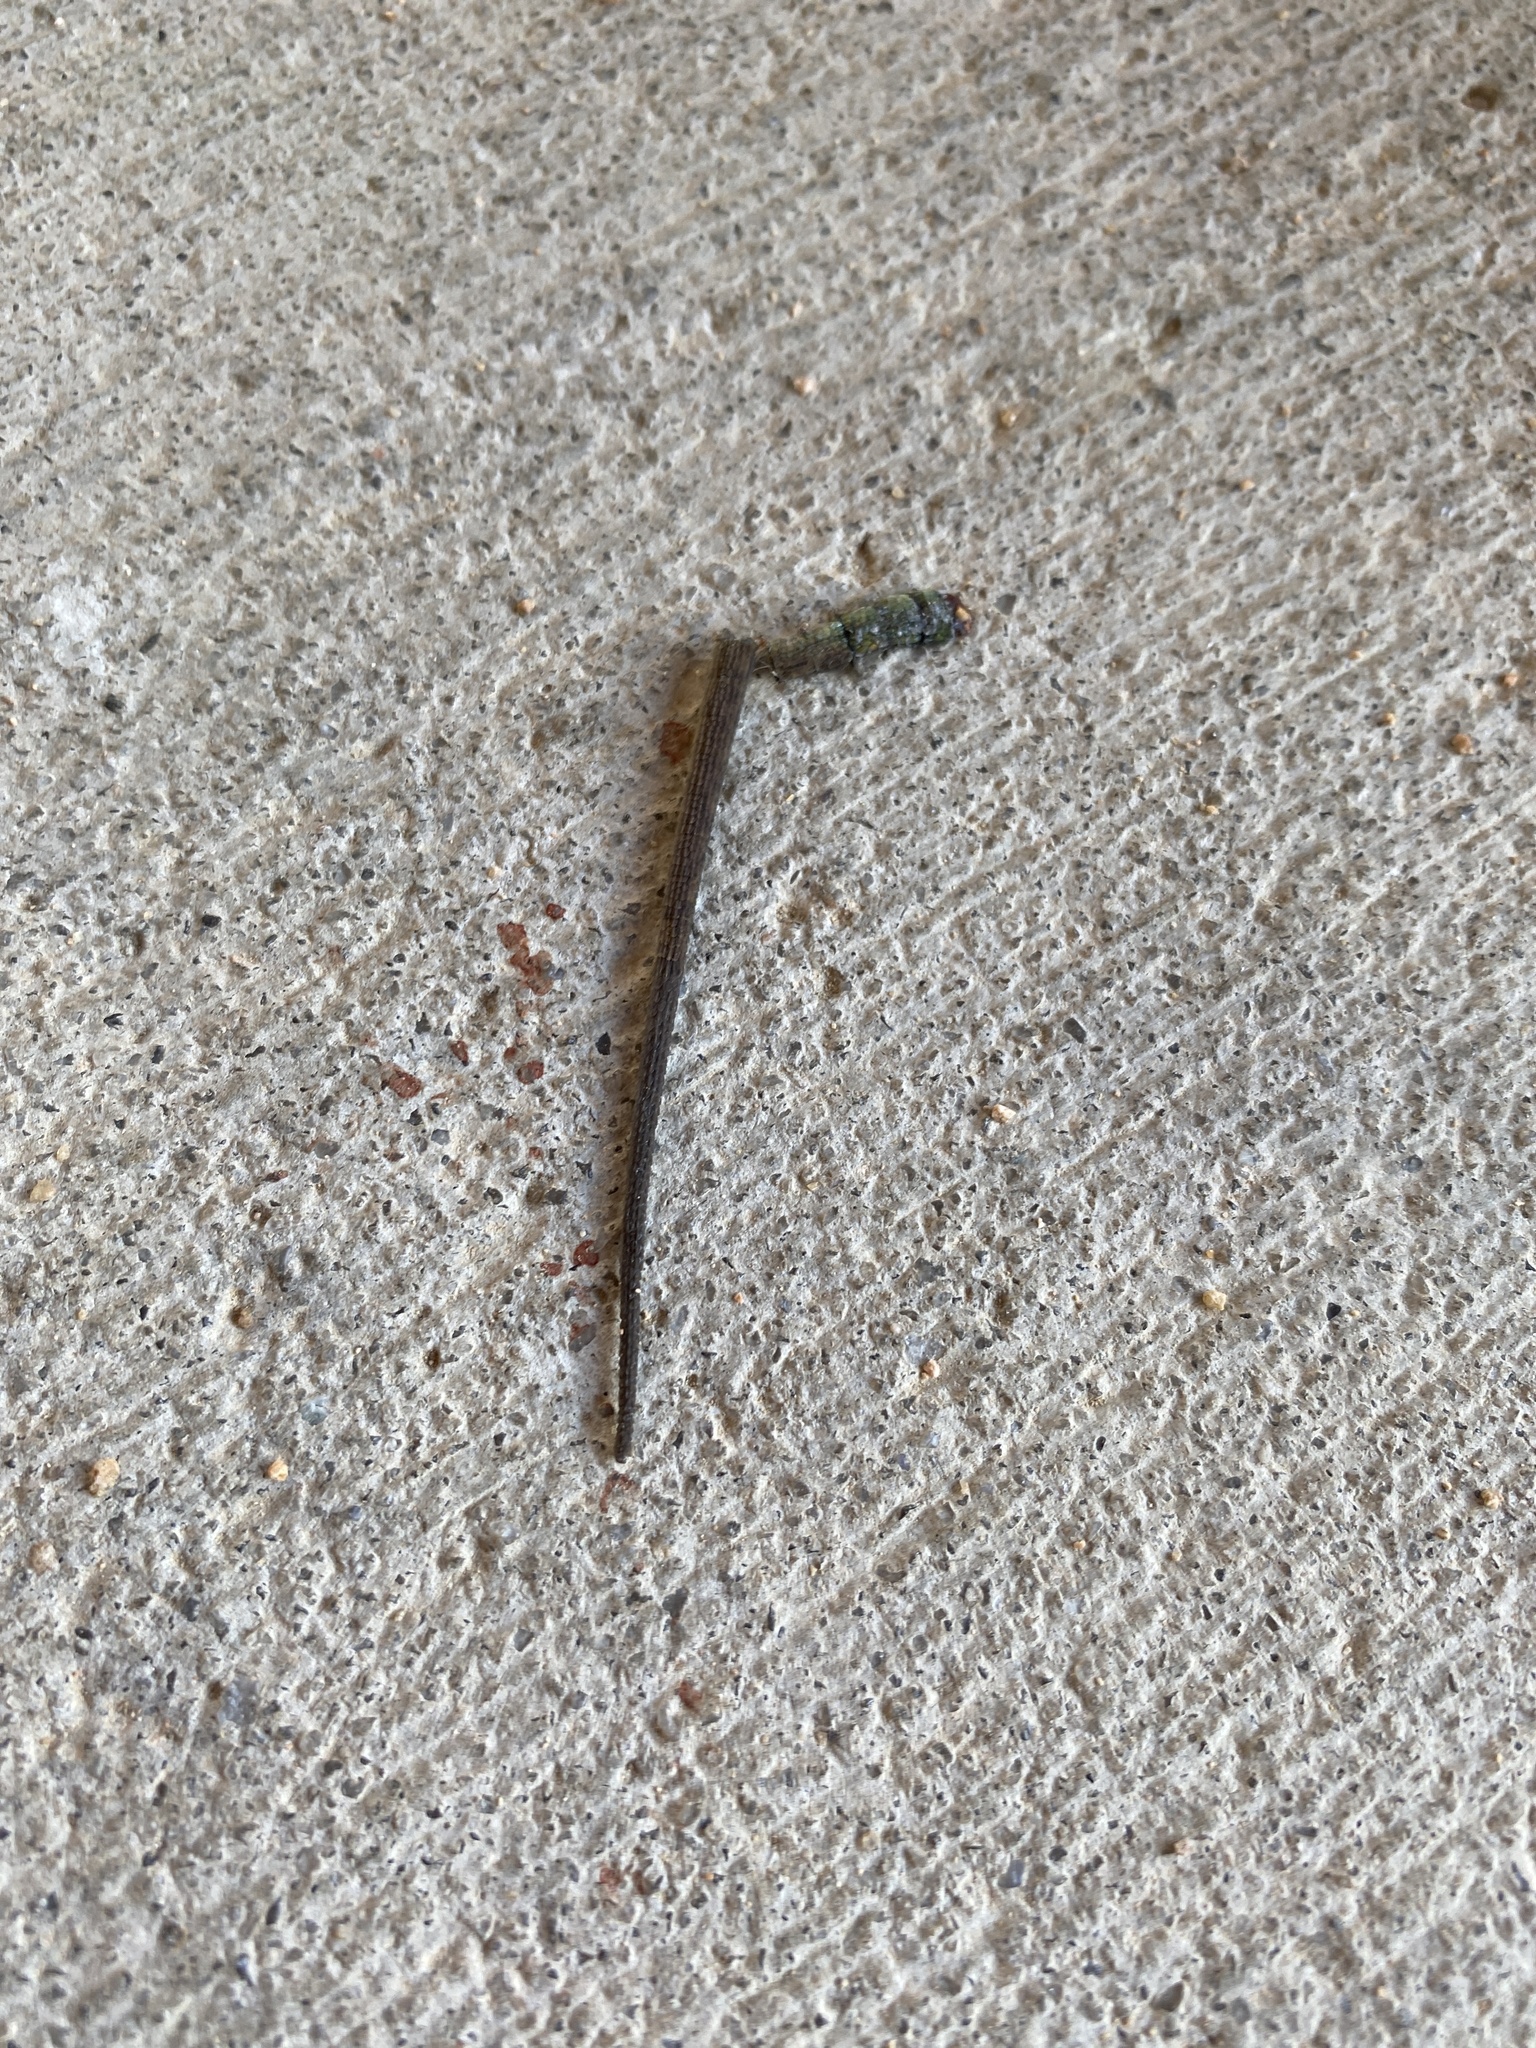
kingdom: Animalia
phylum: Chordata
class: Squamata
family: Dactyloidae
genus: Anolis
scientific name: Anolis carolinensis
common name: Green anole
